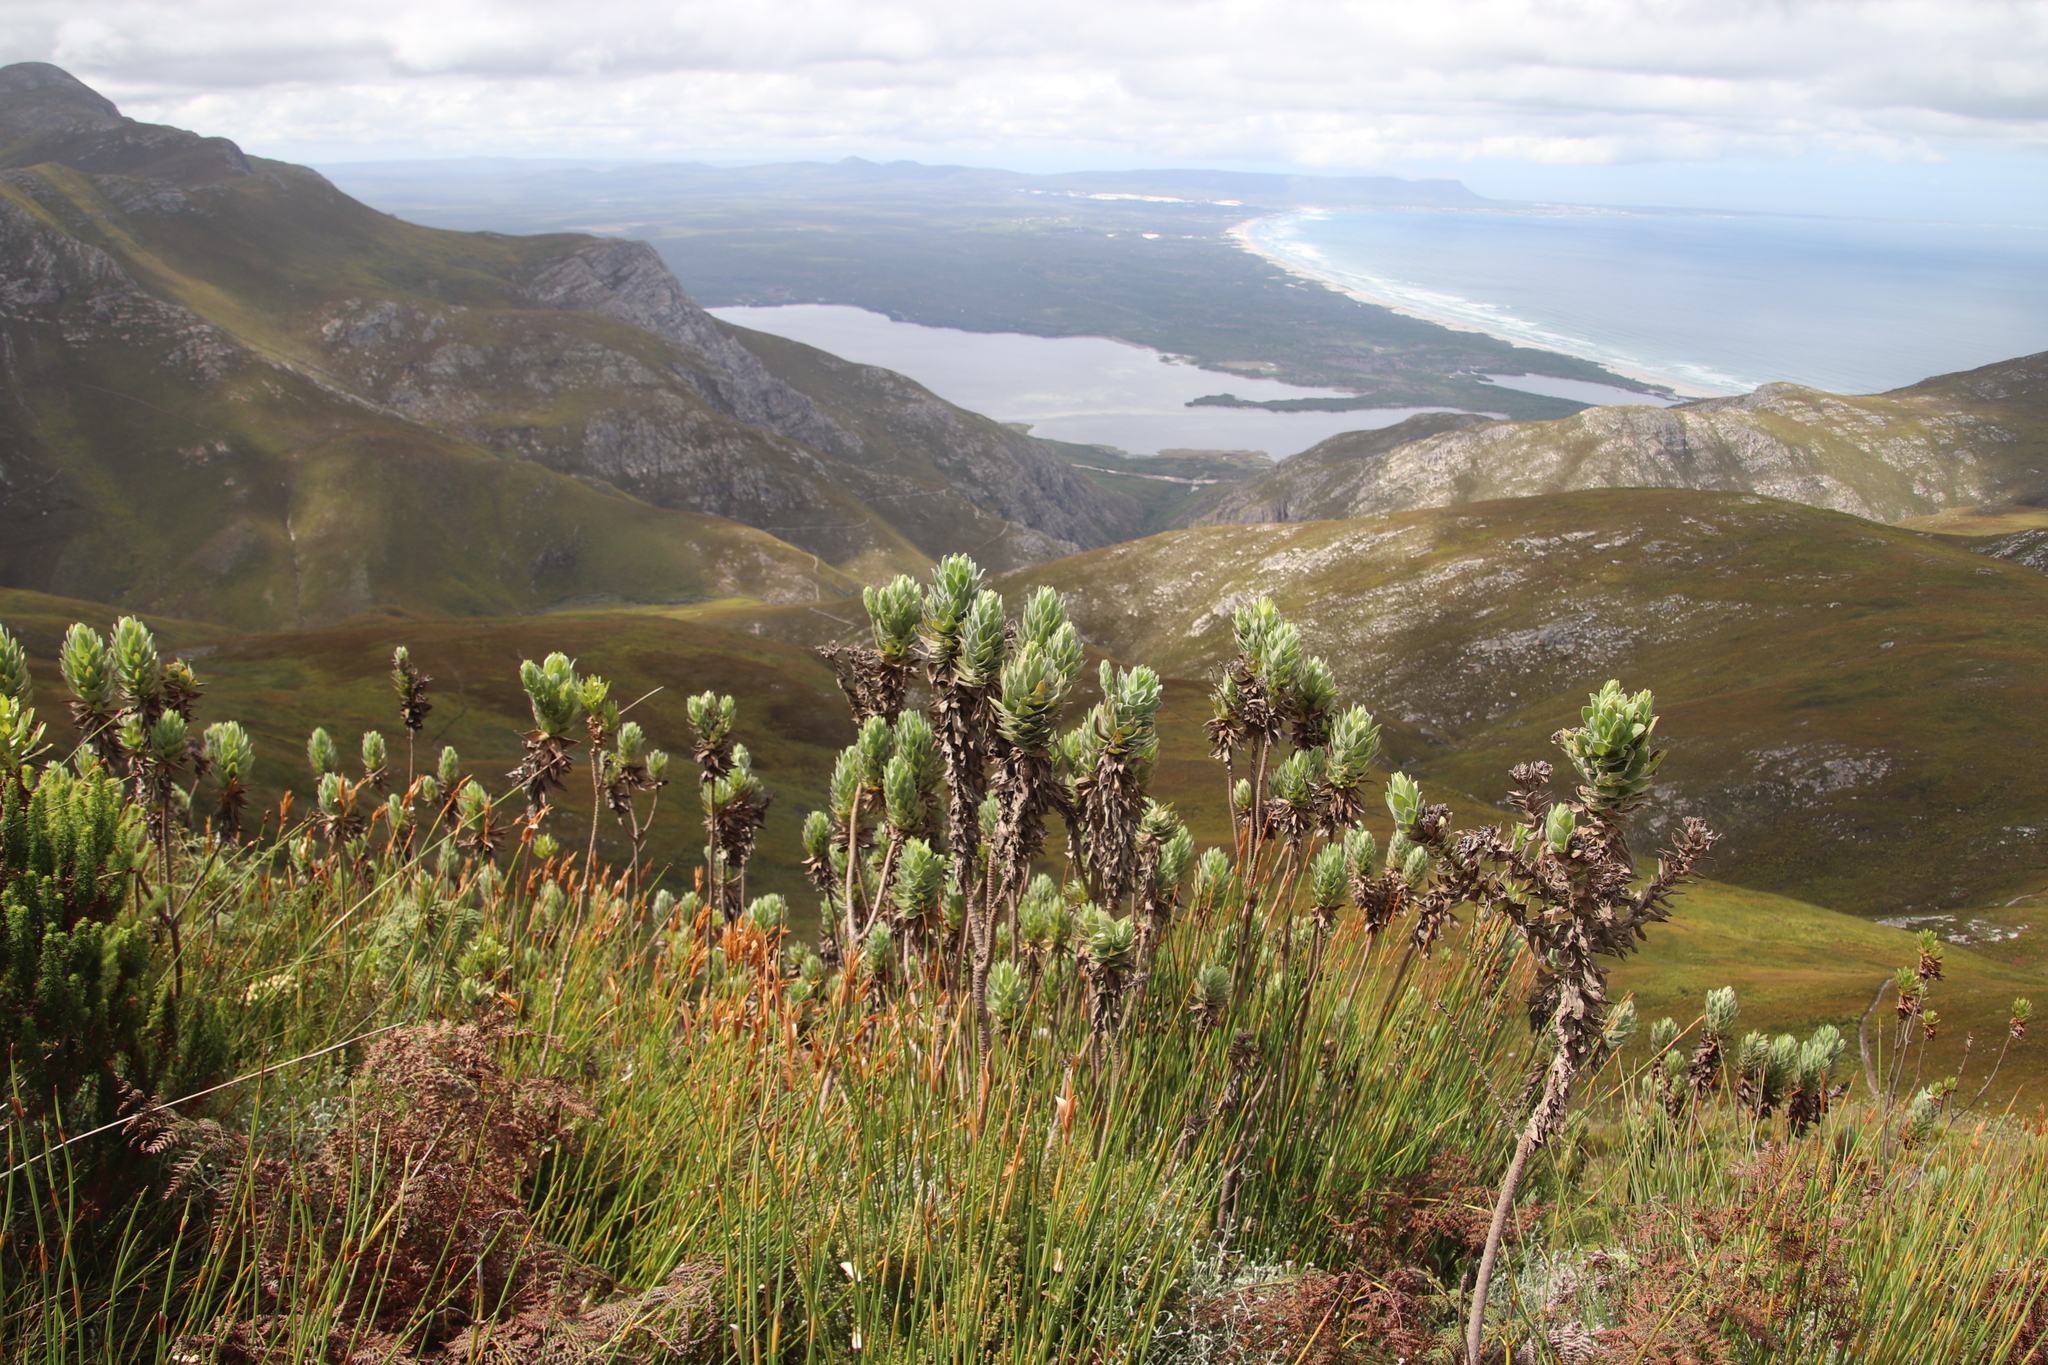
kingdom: Plantae
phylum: Tracheophyta
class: Magnoliopsida
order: Asterales
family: Asteraceae
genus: Osmitopsis
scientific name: Osmitopsis asteriscoides
